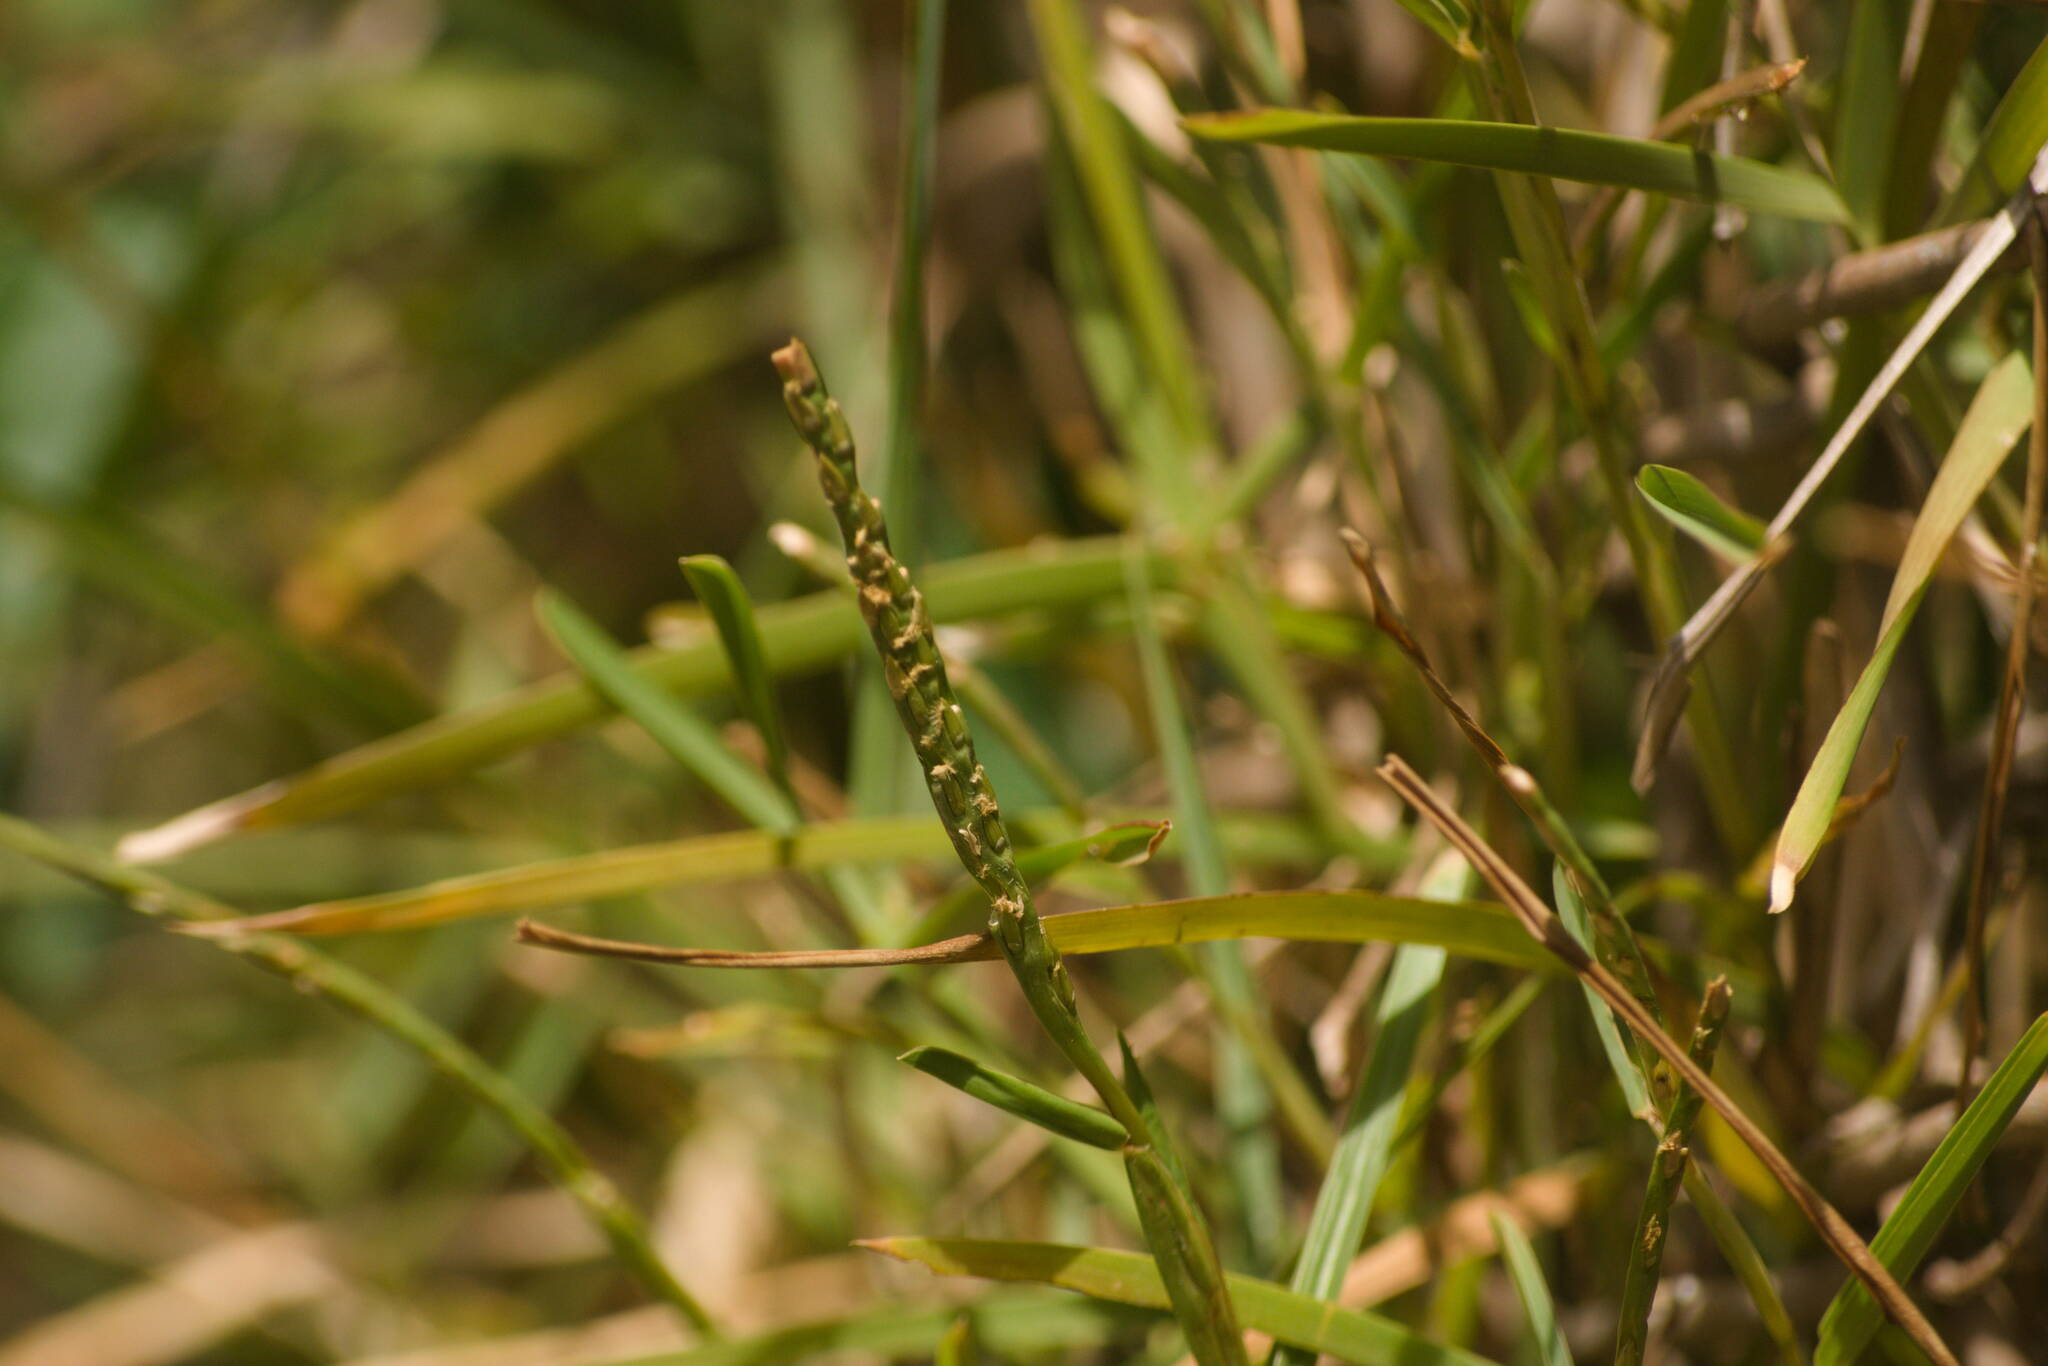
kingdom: Plantae
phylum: Tracheophyta
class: Liliopsida
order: Poales
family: Poaceae
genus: Stenotaphrum
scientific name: Stenotaphrum secundatum
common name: St. augustine grass
